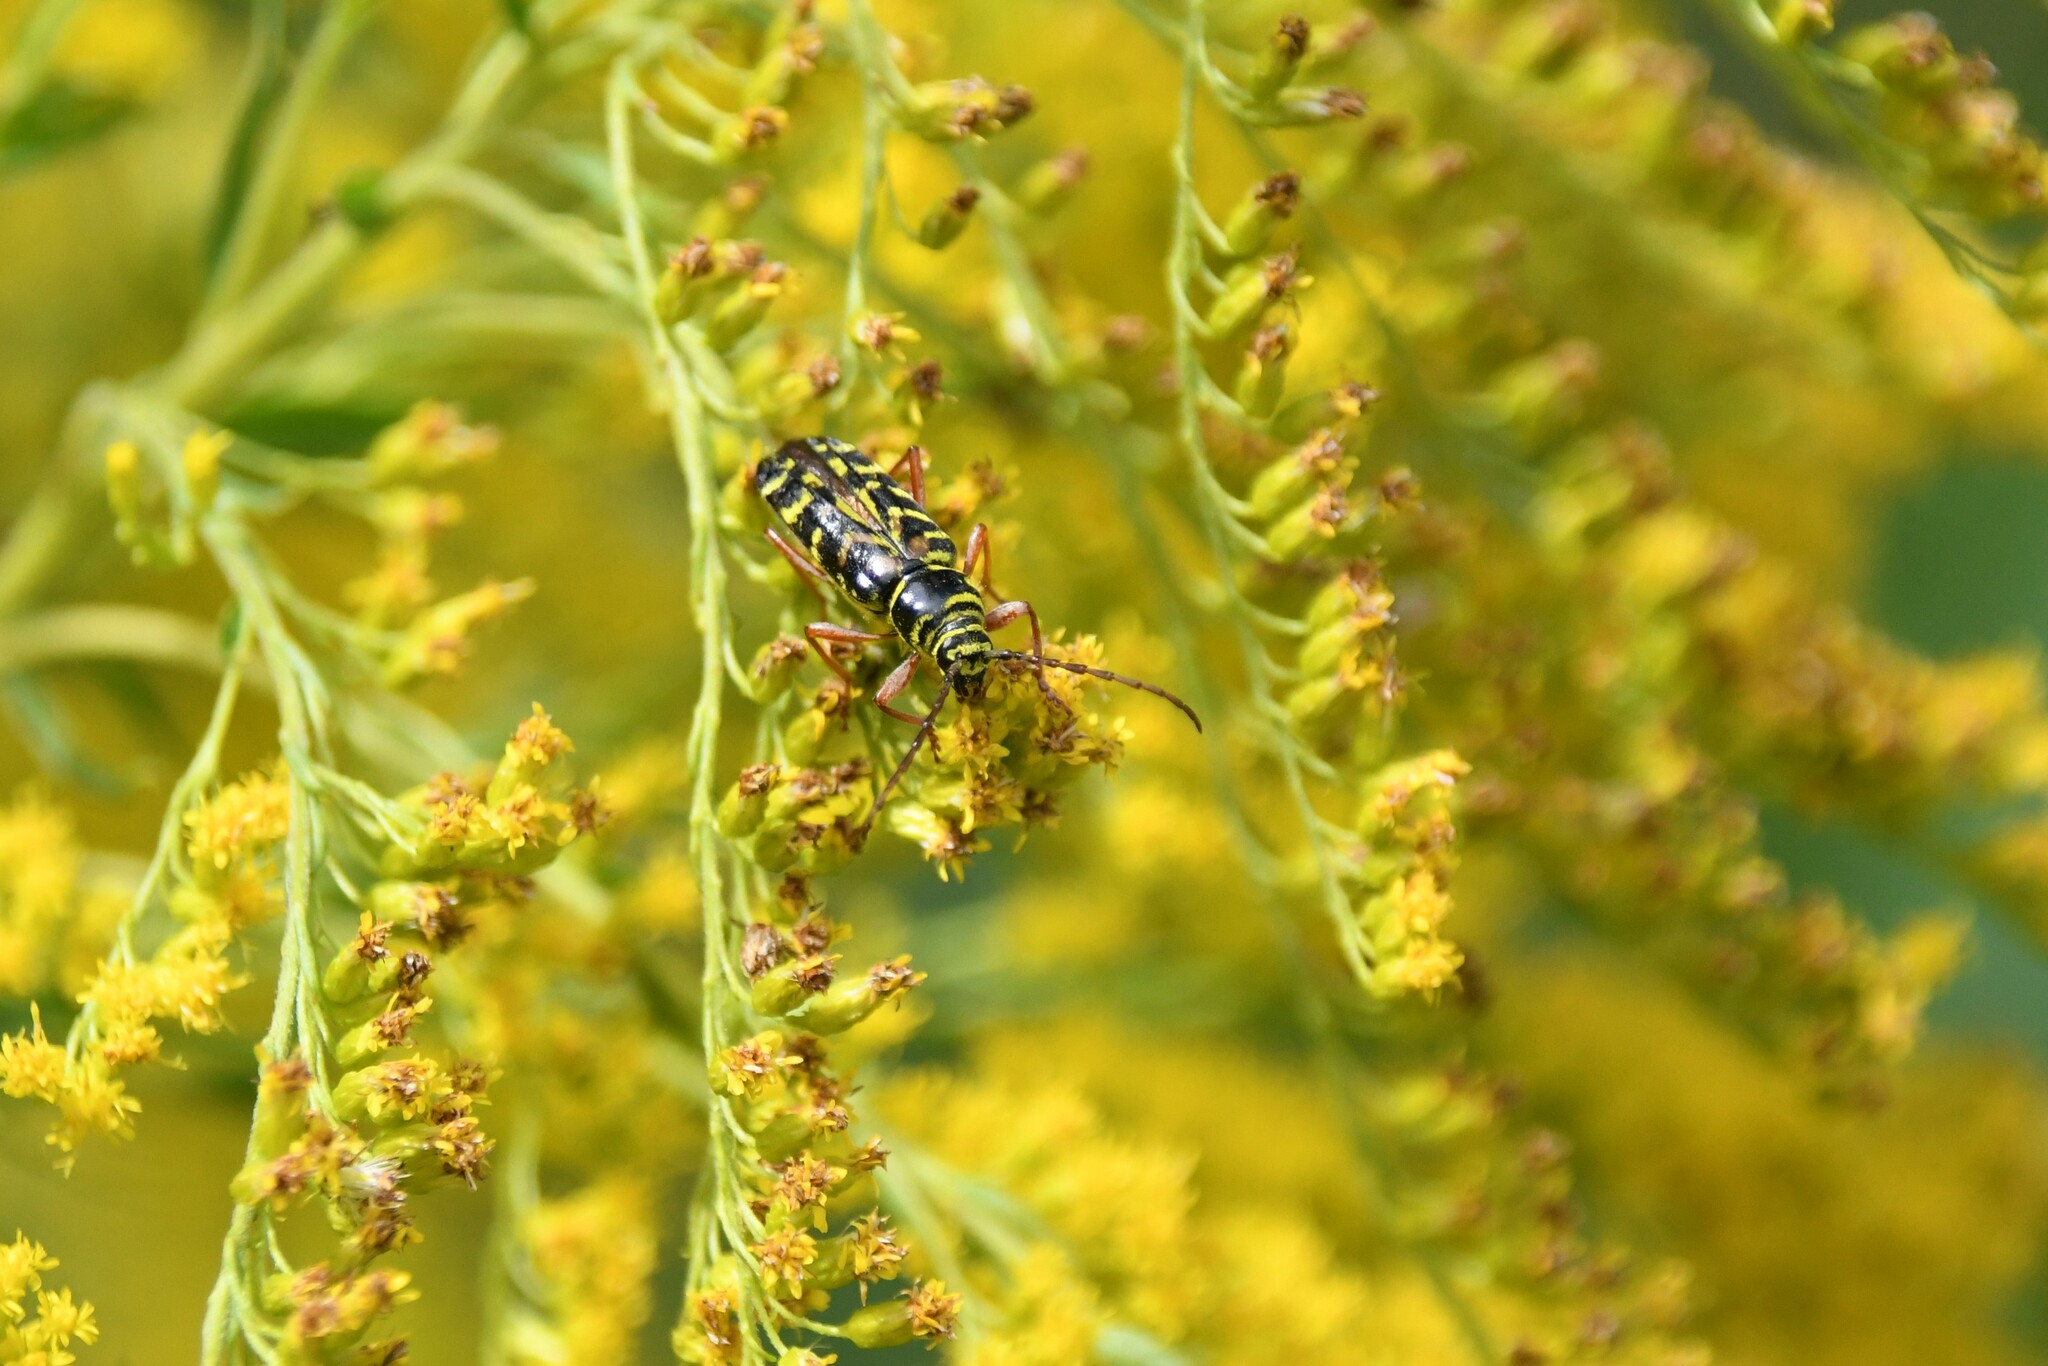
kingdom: Animalia
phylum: Arthropoda
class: Insecta
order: Coleoptera
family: Cerambycidae
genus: Megacyllene
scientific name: Megacyllene robiniae
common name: Locust borer
